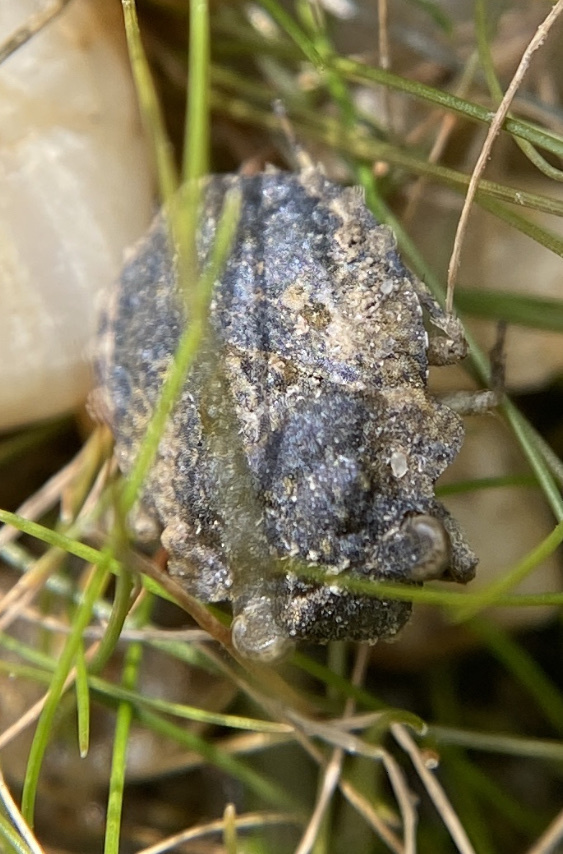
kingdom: Animalia
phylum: Arthropoda
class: Insecta
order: Hemiptera
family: Gelastocoridae
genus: Gelastocoris
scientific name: Gelastocoris oculatus
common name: Toad bug
